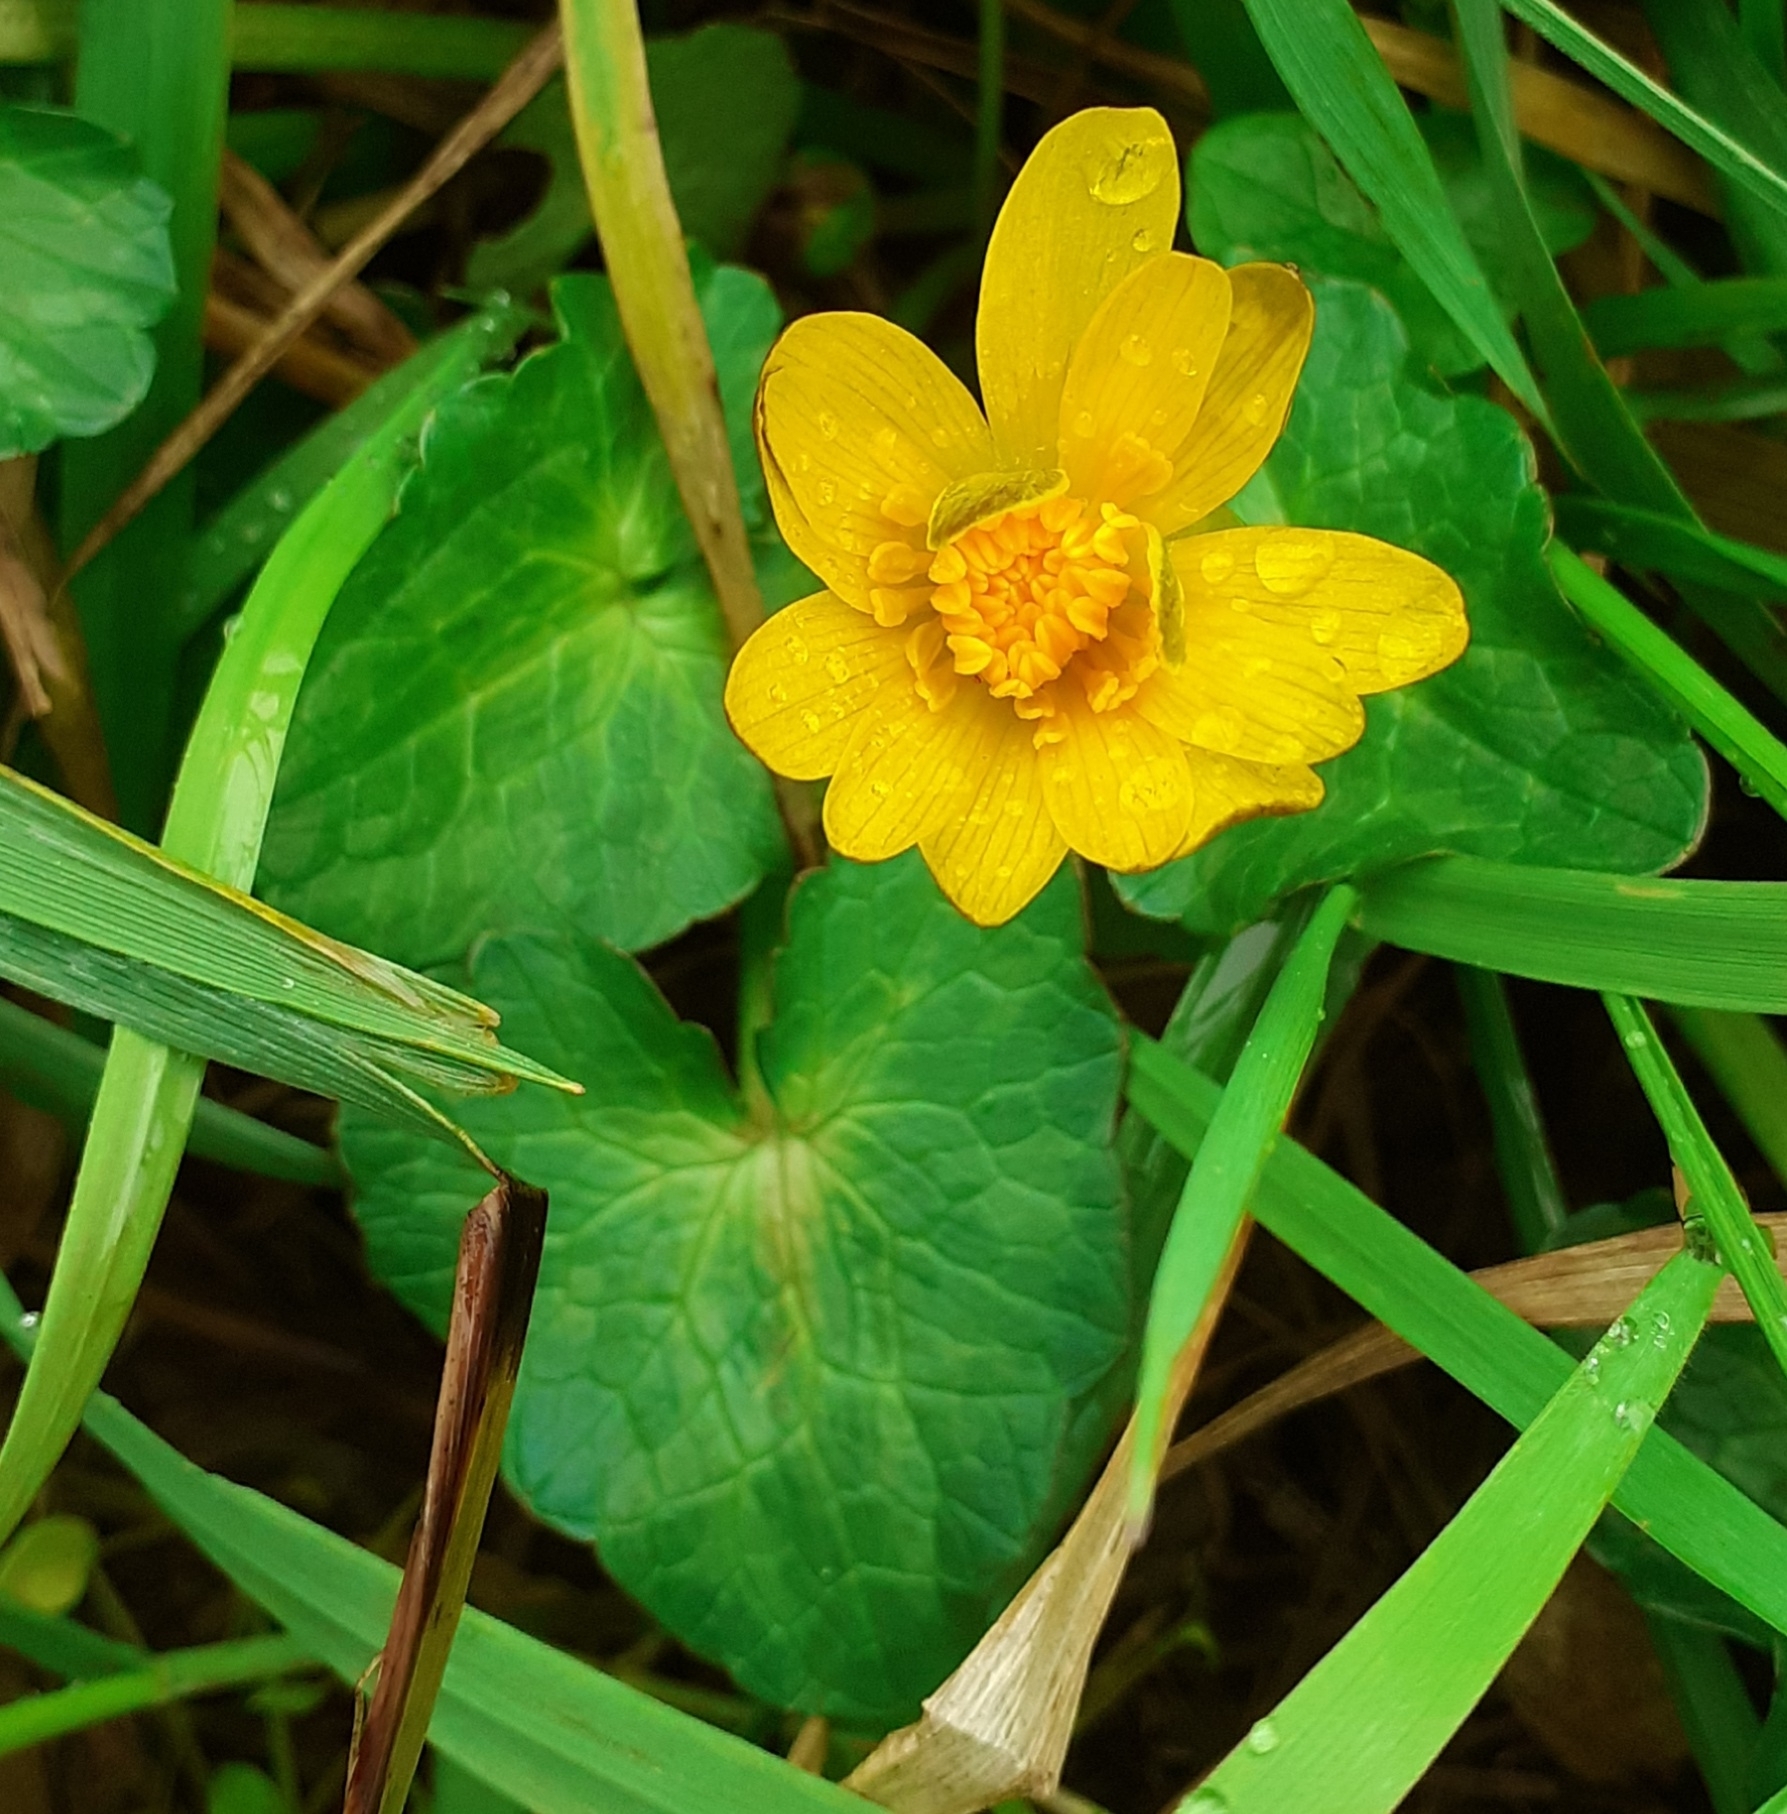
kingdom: Plantae
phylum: Tracheophyta
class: Magnoliopsida
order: Ranunculales
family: Ranunculaceae
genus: Ficaria
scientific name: Ficaria verna
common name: Lesser celandine
